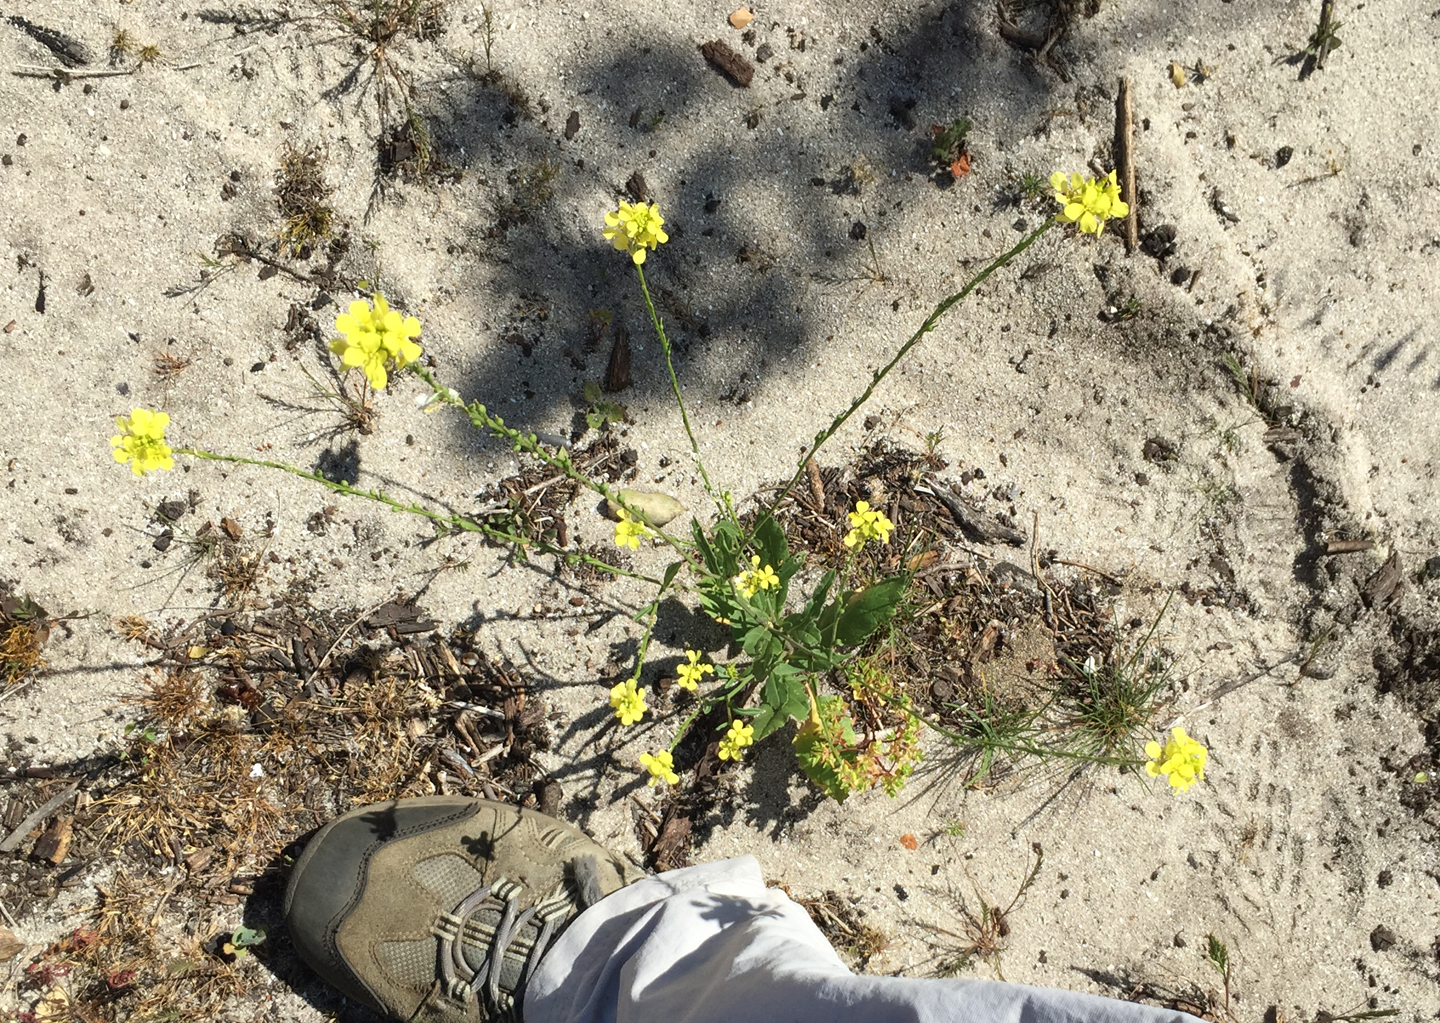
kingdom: Plantae
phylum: Tracheophyta
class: Magnoliopsida
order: Brassicales
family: Brassicaceae
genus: Rapistrum
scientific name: Rapistrum rugosum
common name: Annual bastardcabbage
